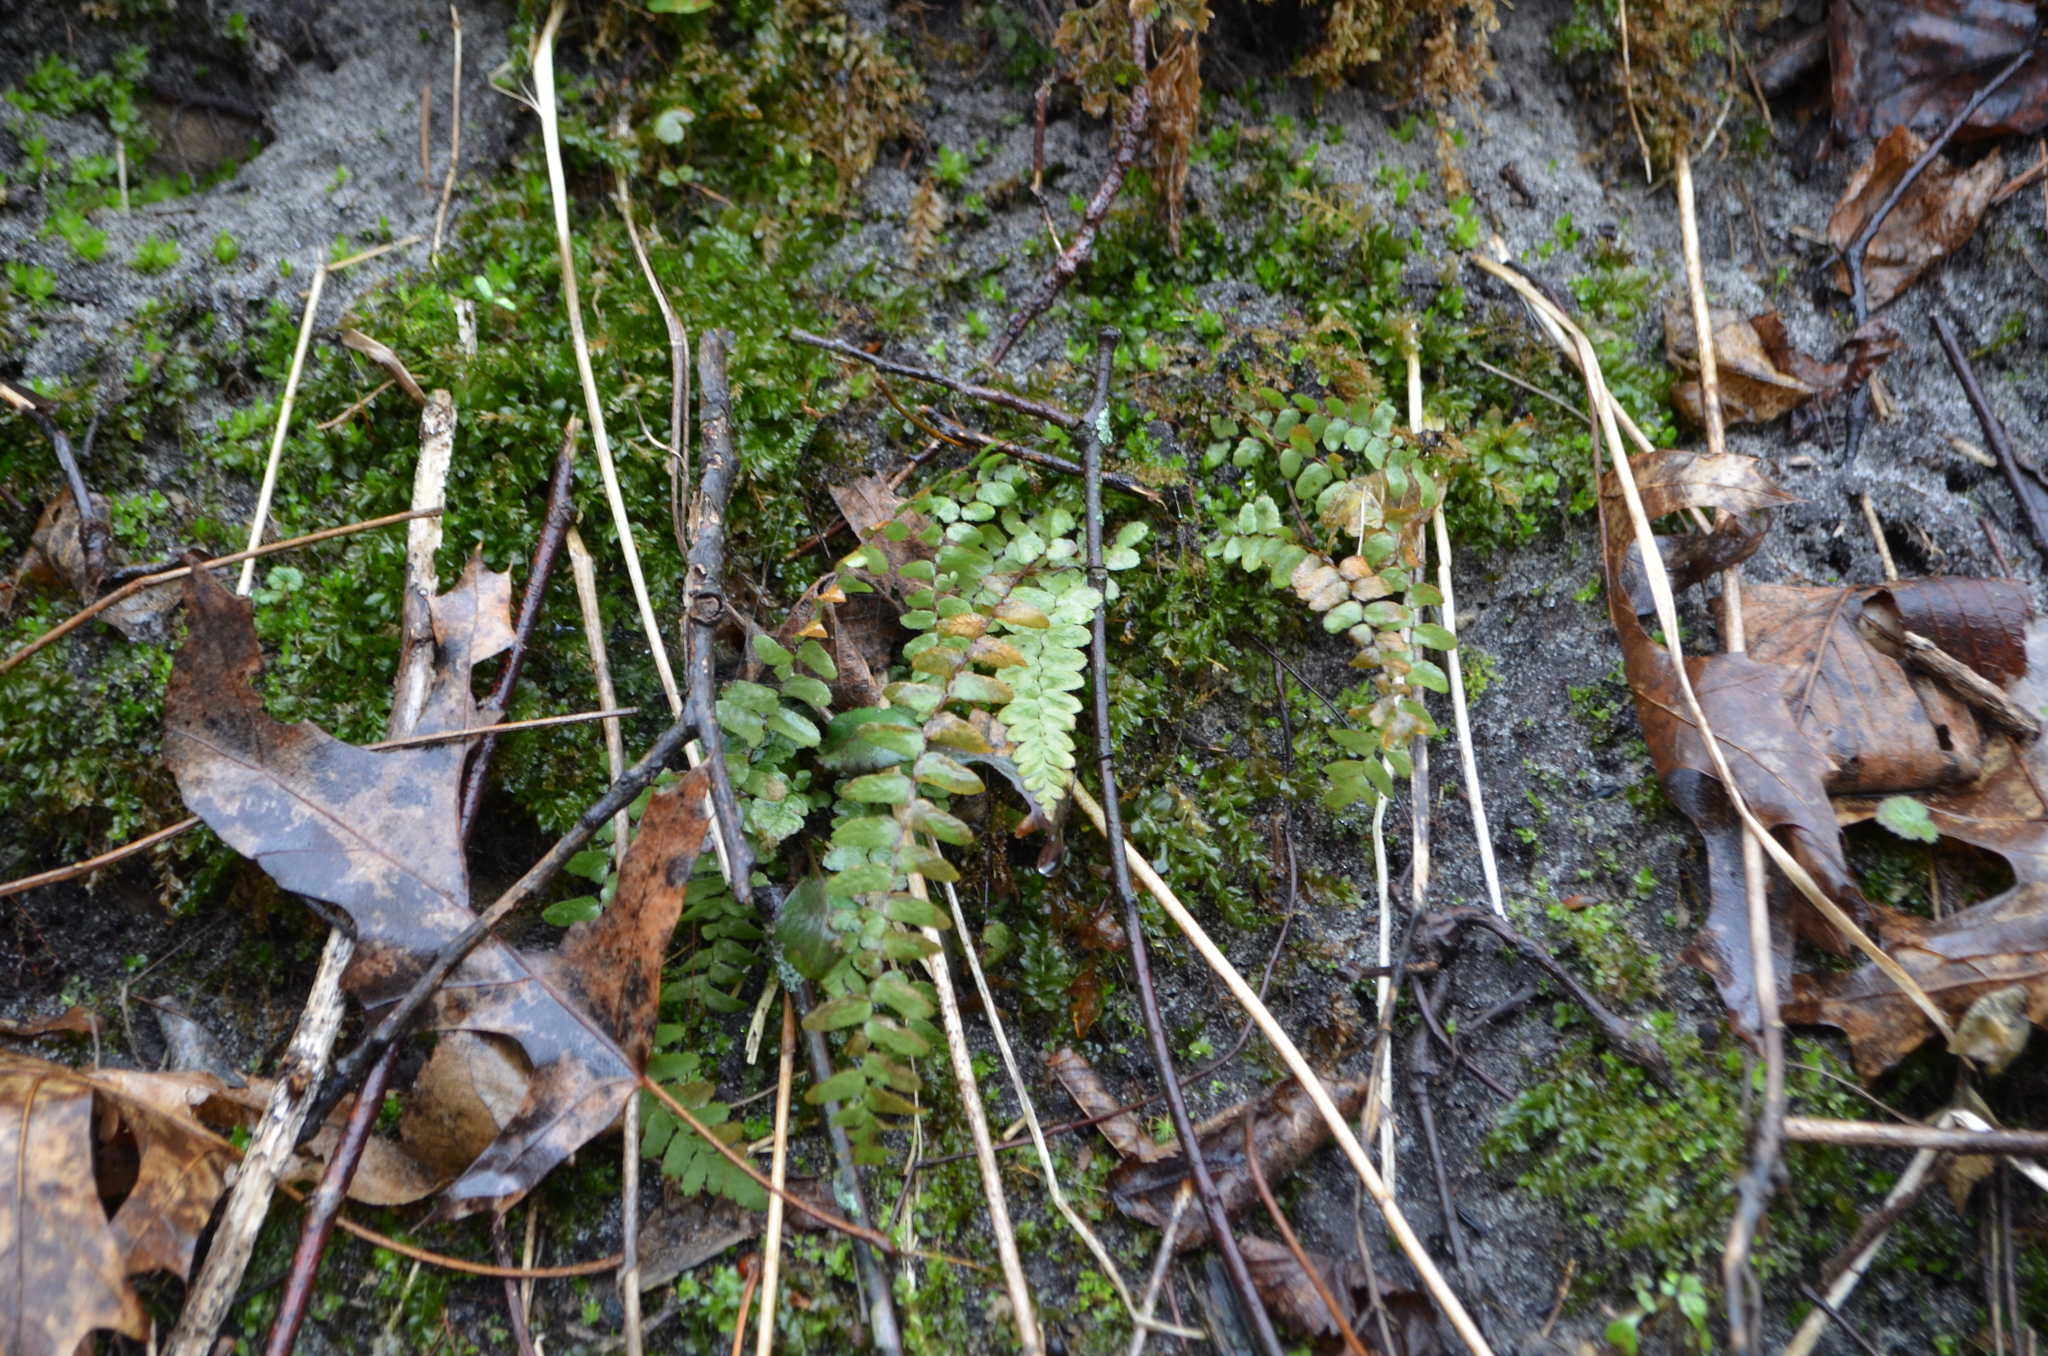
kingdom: Plantae
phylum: Tracheophyta
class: Polypodiopsida
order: Polypodiales
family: Aspleniaceae
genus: Asplenium
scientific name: Asplenium platyneuron
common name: Ebony spleenwort
